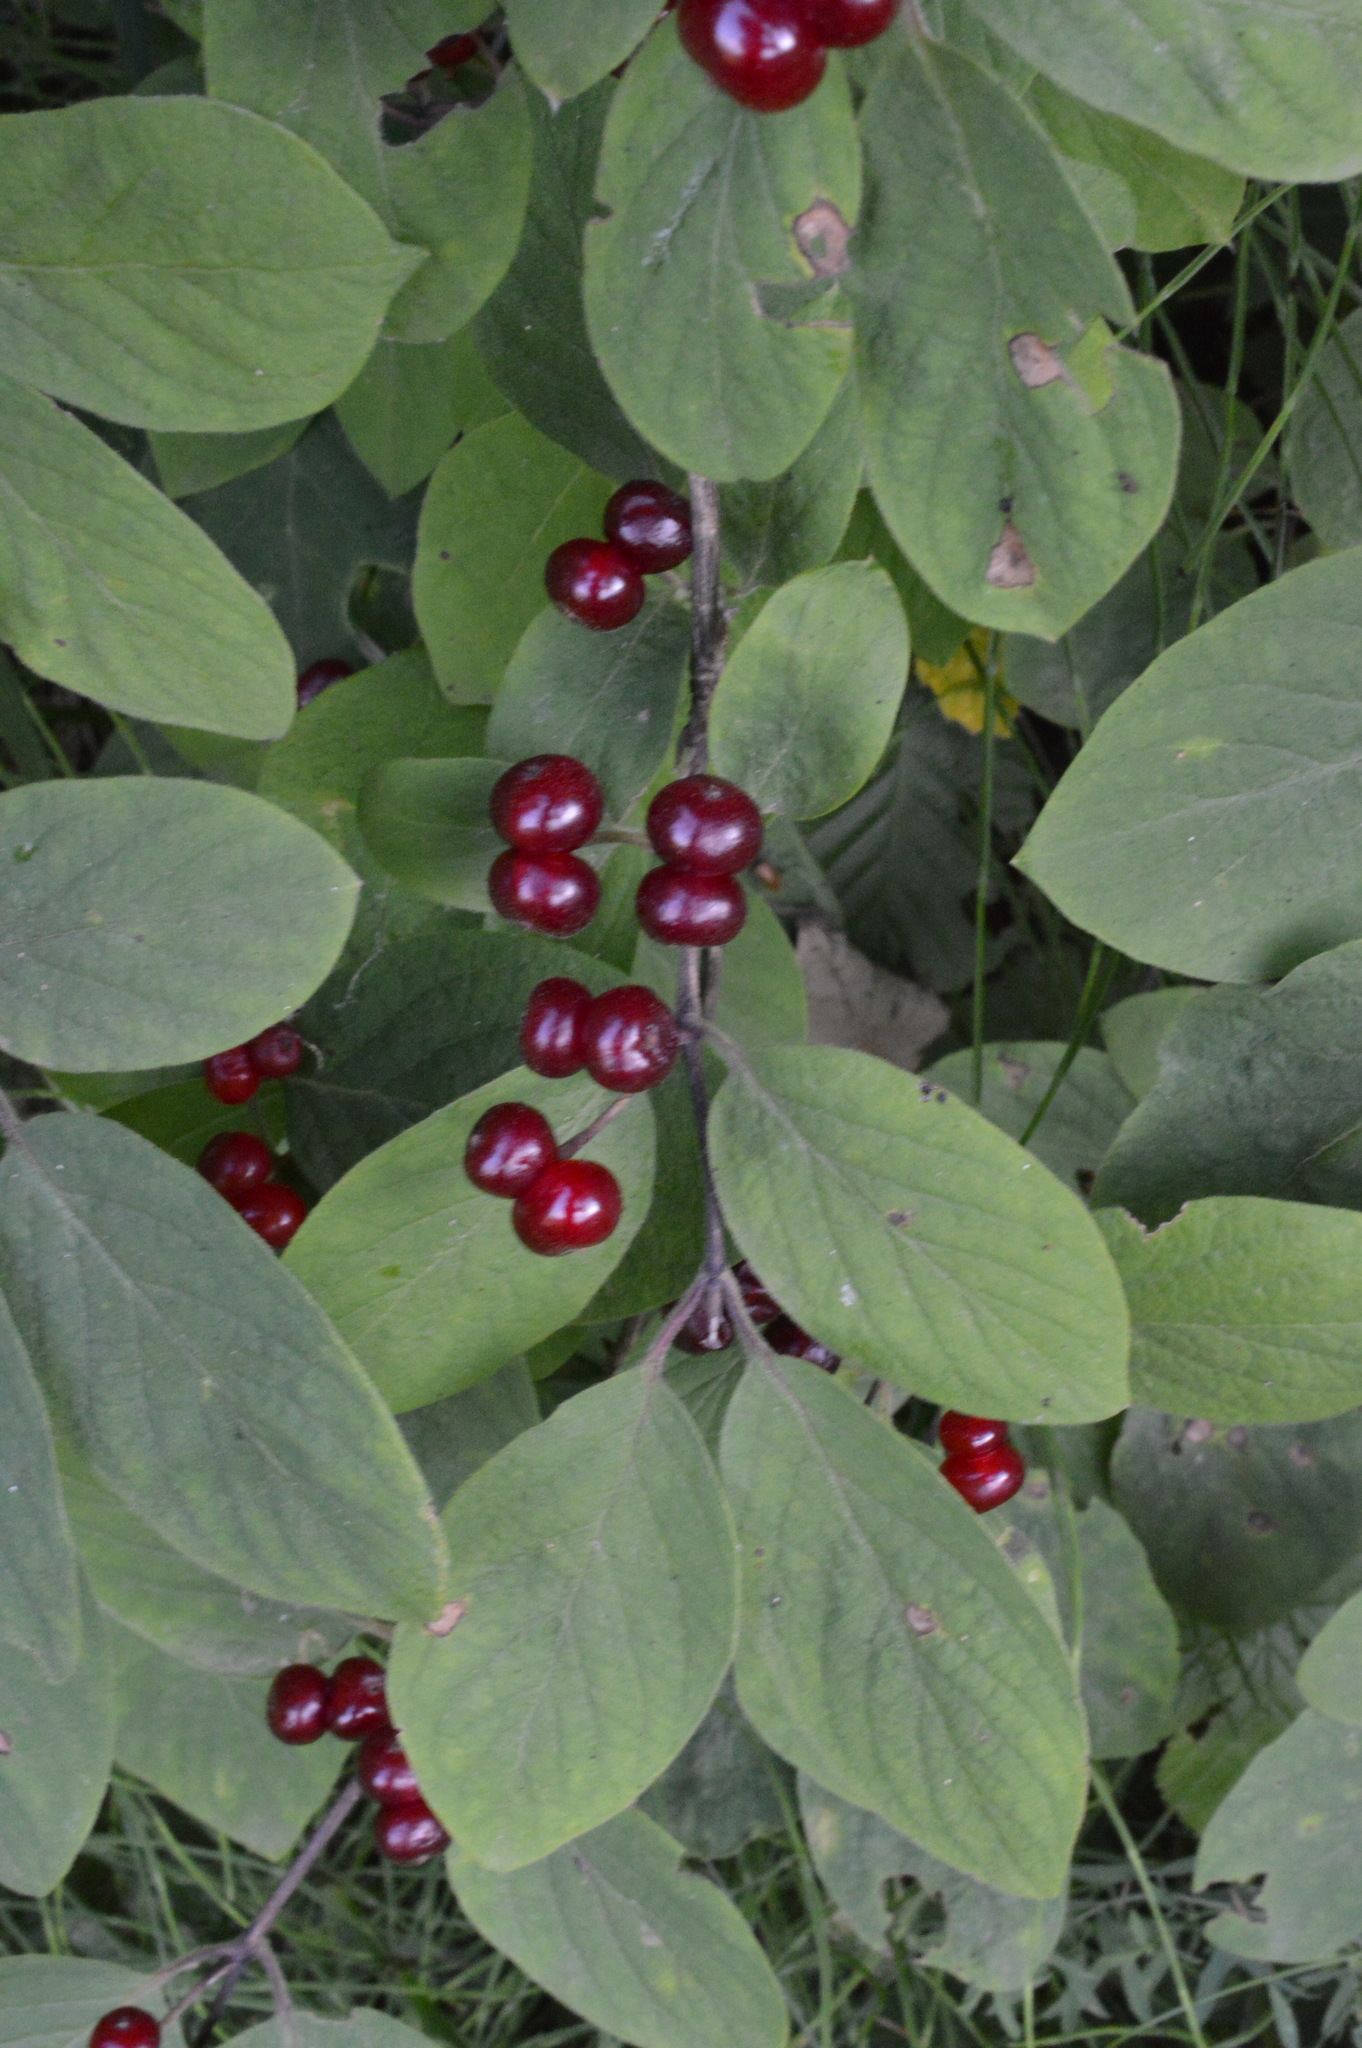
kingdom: Plantae
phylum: Tracheophyta
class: Magnoliopsida
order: Dipsacales
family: Caprifoliaceae
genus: Lonicera
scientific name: Lonicera xylosteum
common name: Fly honeysuckle
